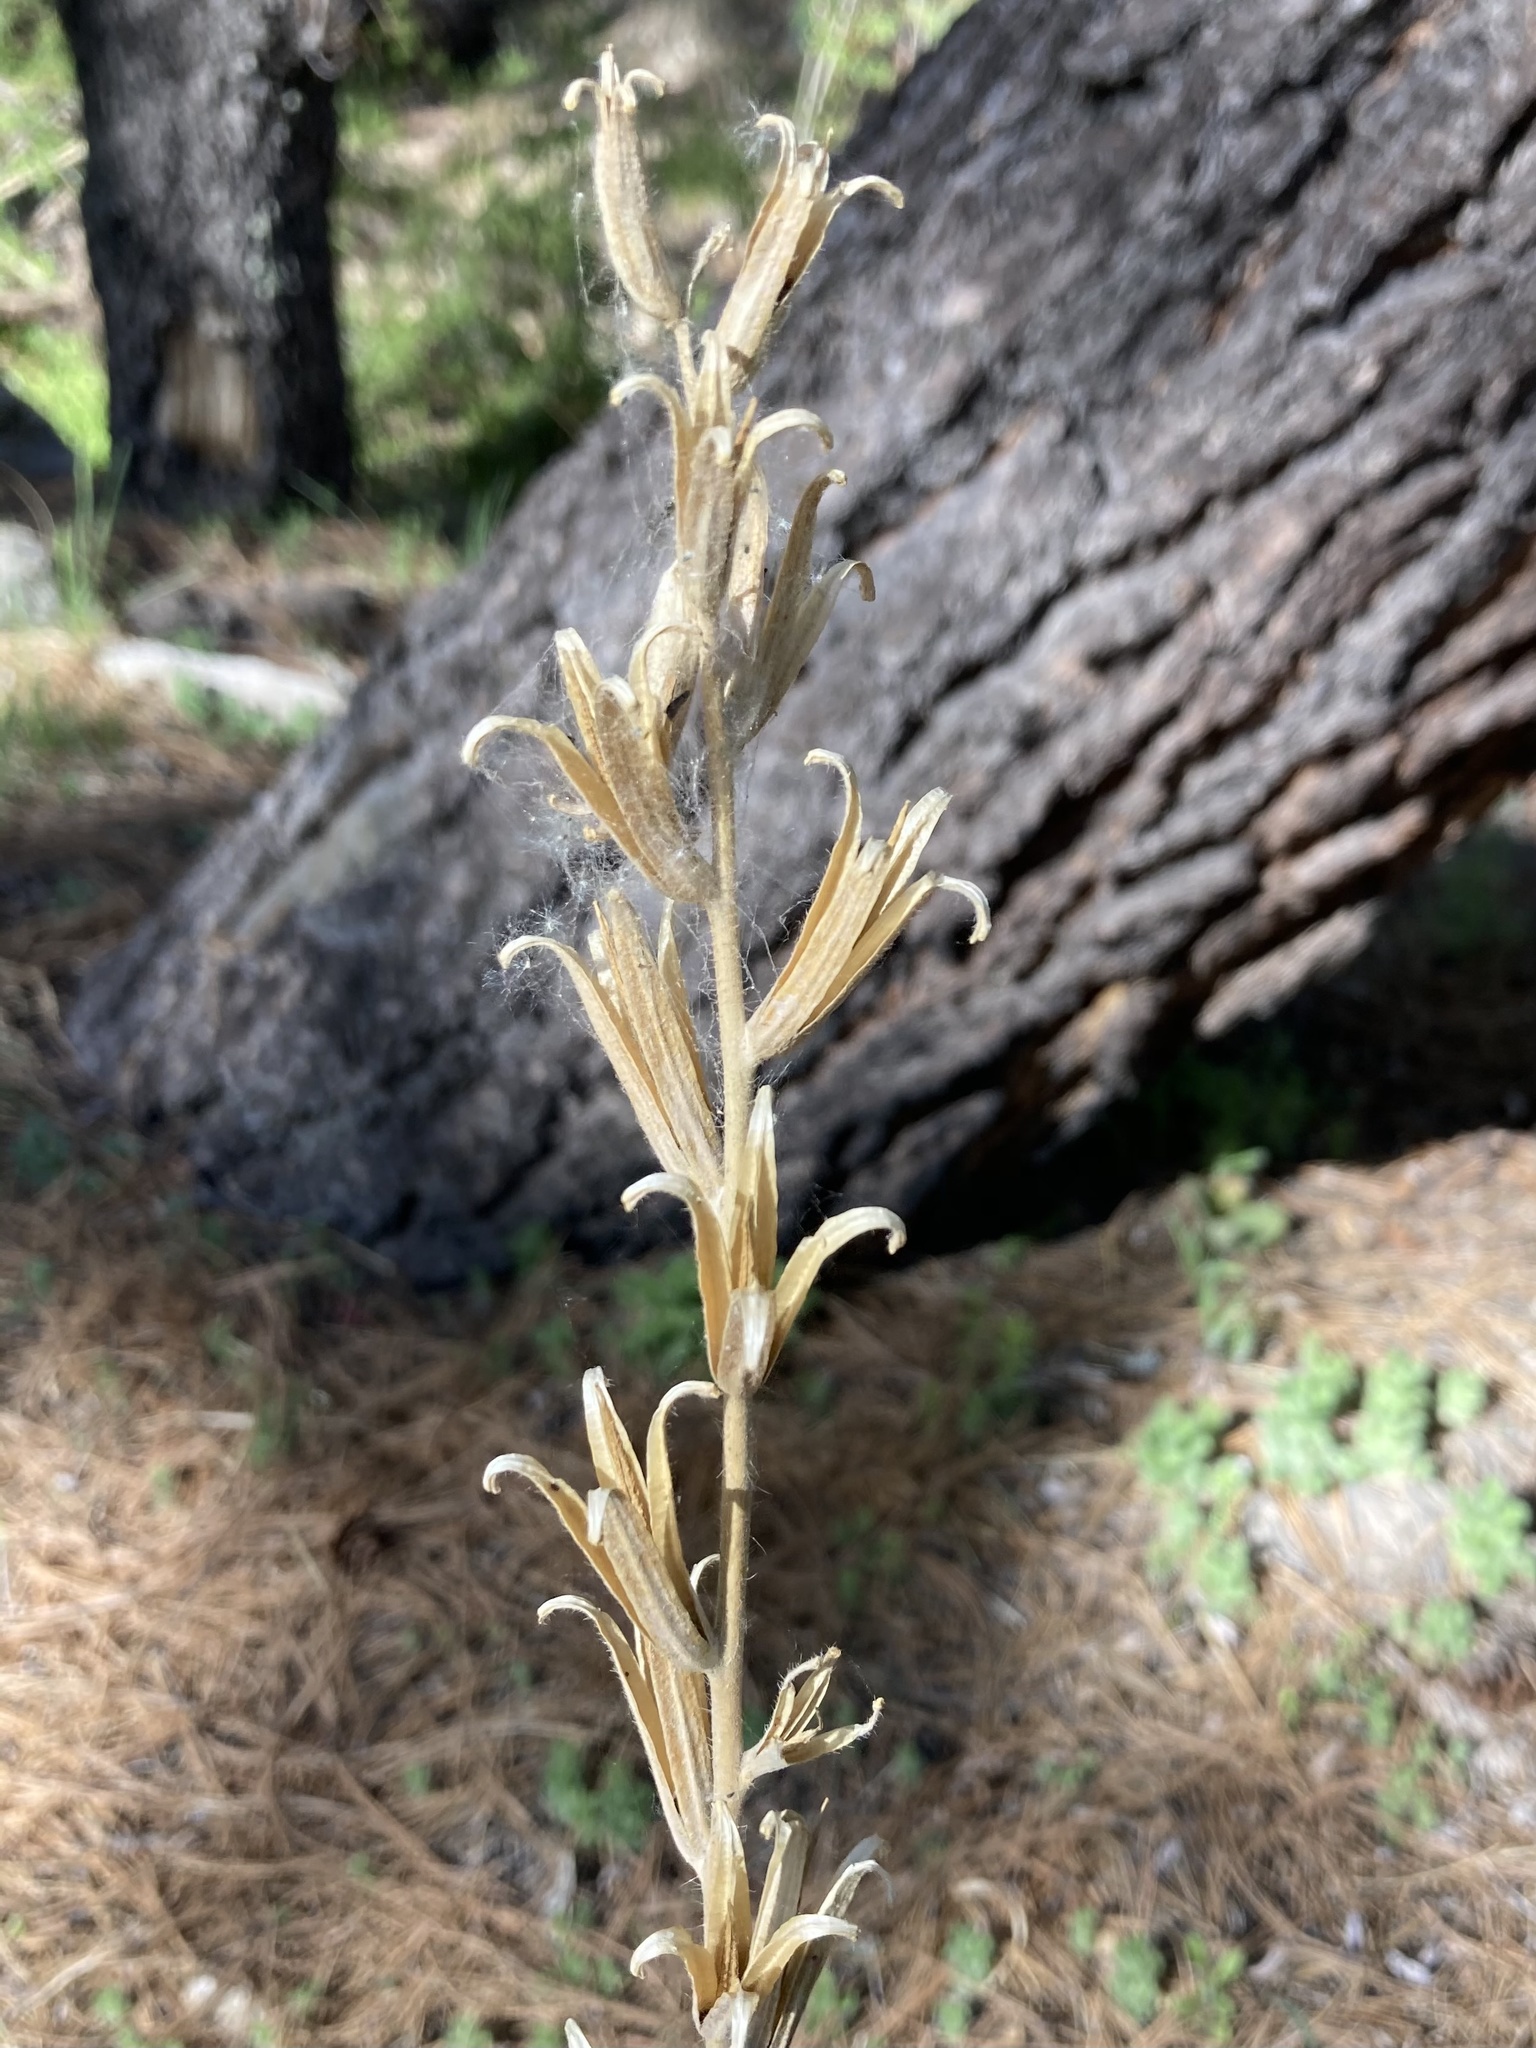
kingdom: Plantae
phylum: Tracheophyta
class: Magnoliopsida
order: Myrtales
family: Onagraceae
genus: Oenothera
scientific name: Oenothera elata
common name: Hooker's evening-primrose
